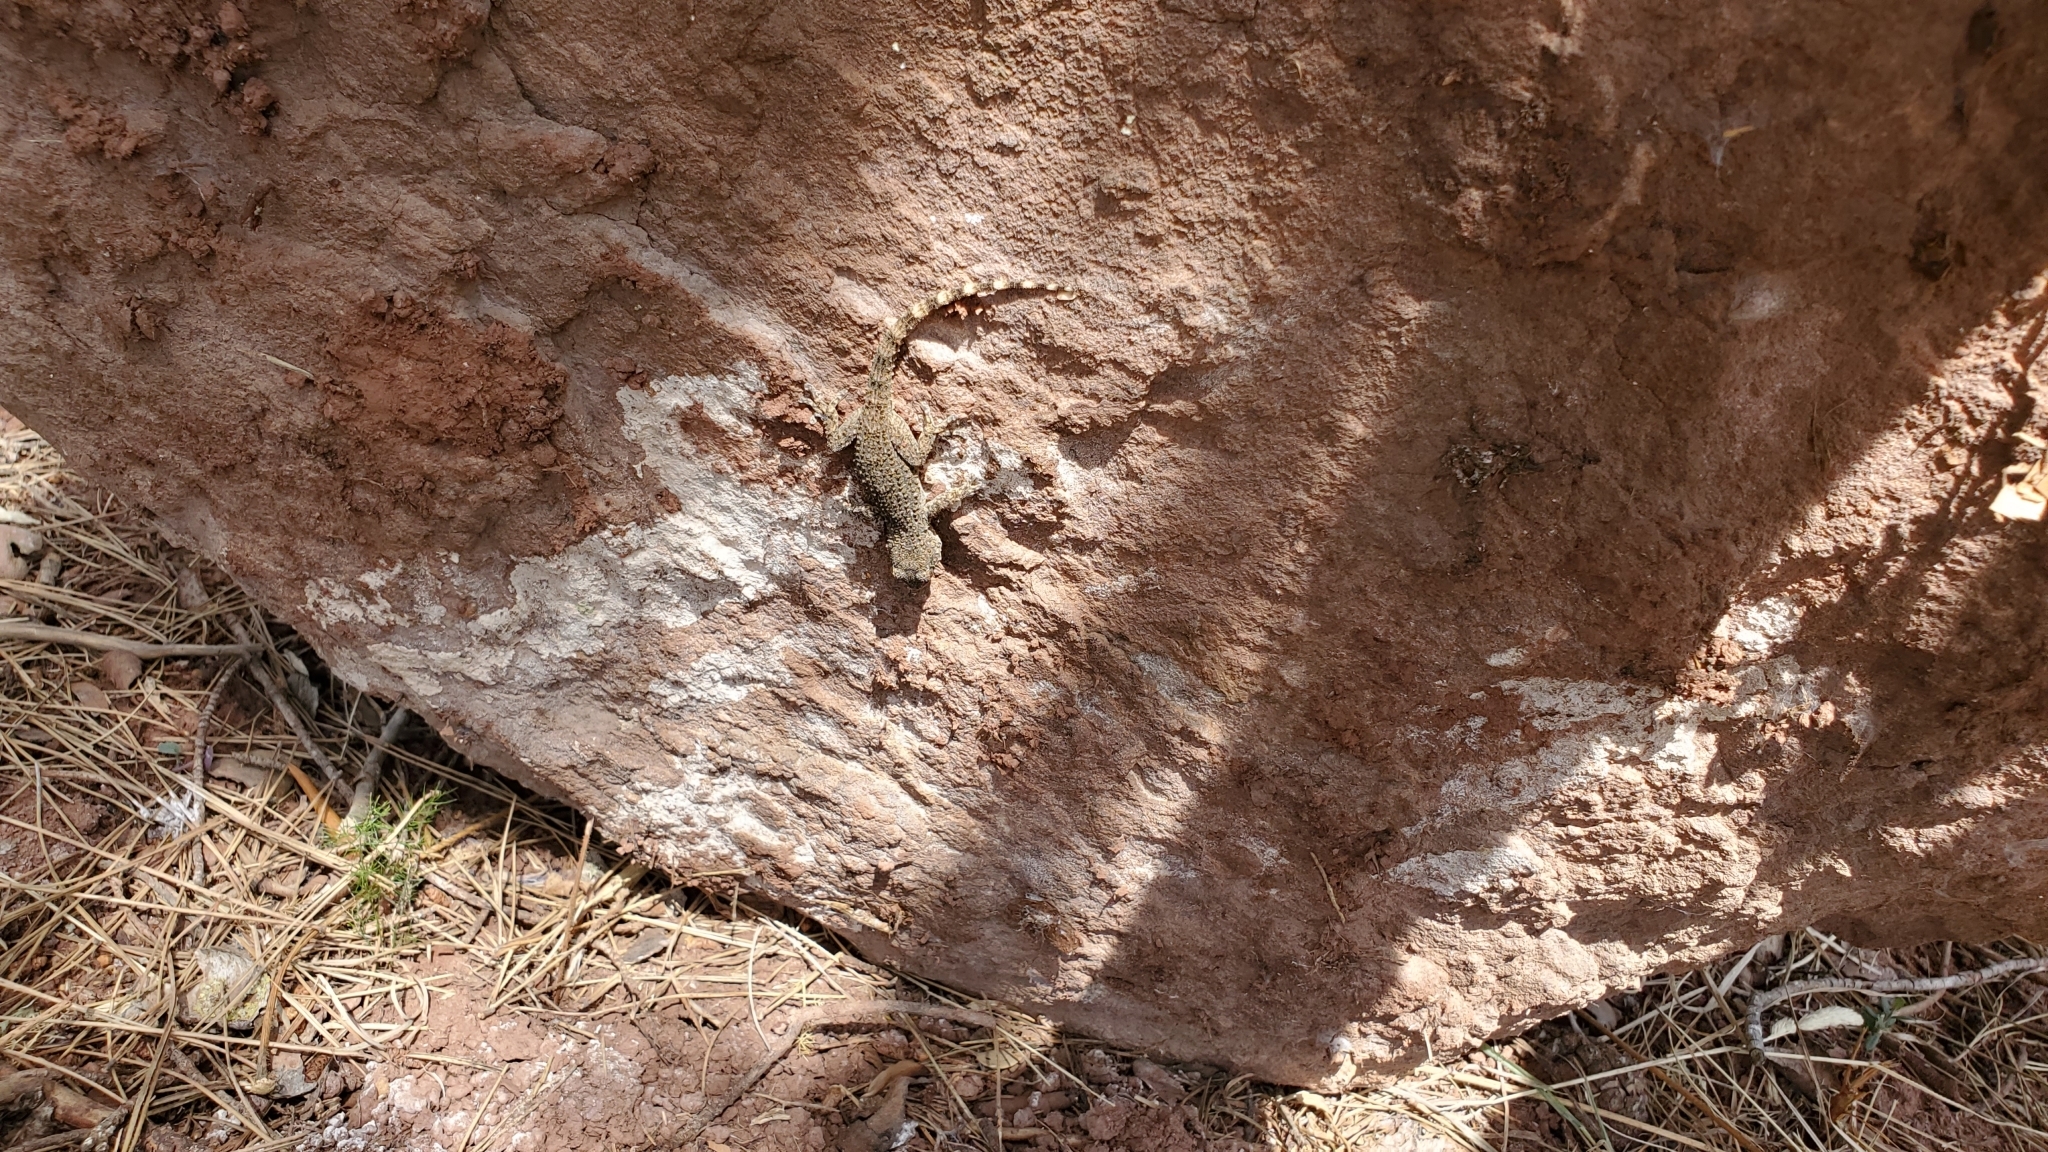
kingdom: Animalia
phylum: Chordata
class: Squamata
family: Phyllodactylidae
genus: Tarentola
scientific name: Tarentola mauritanica
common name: Moorish gecko
